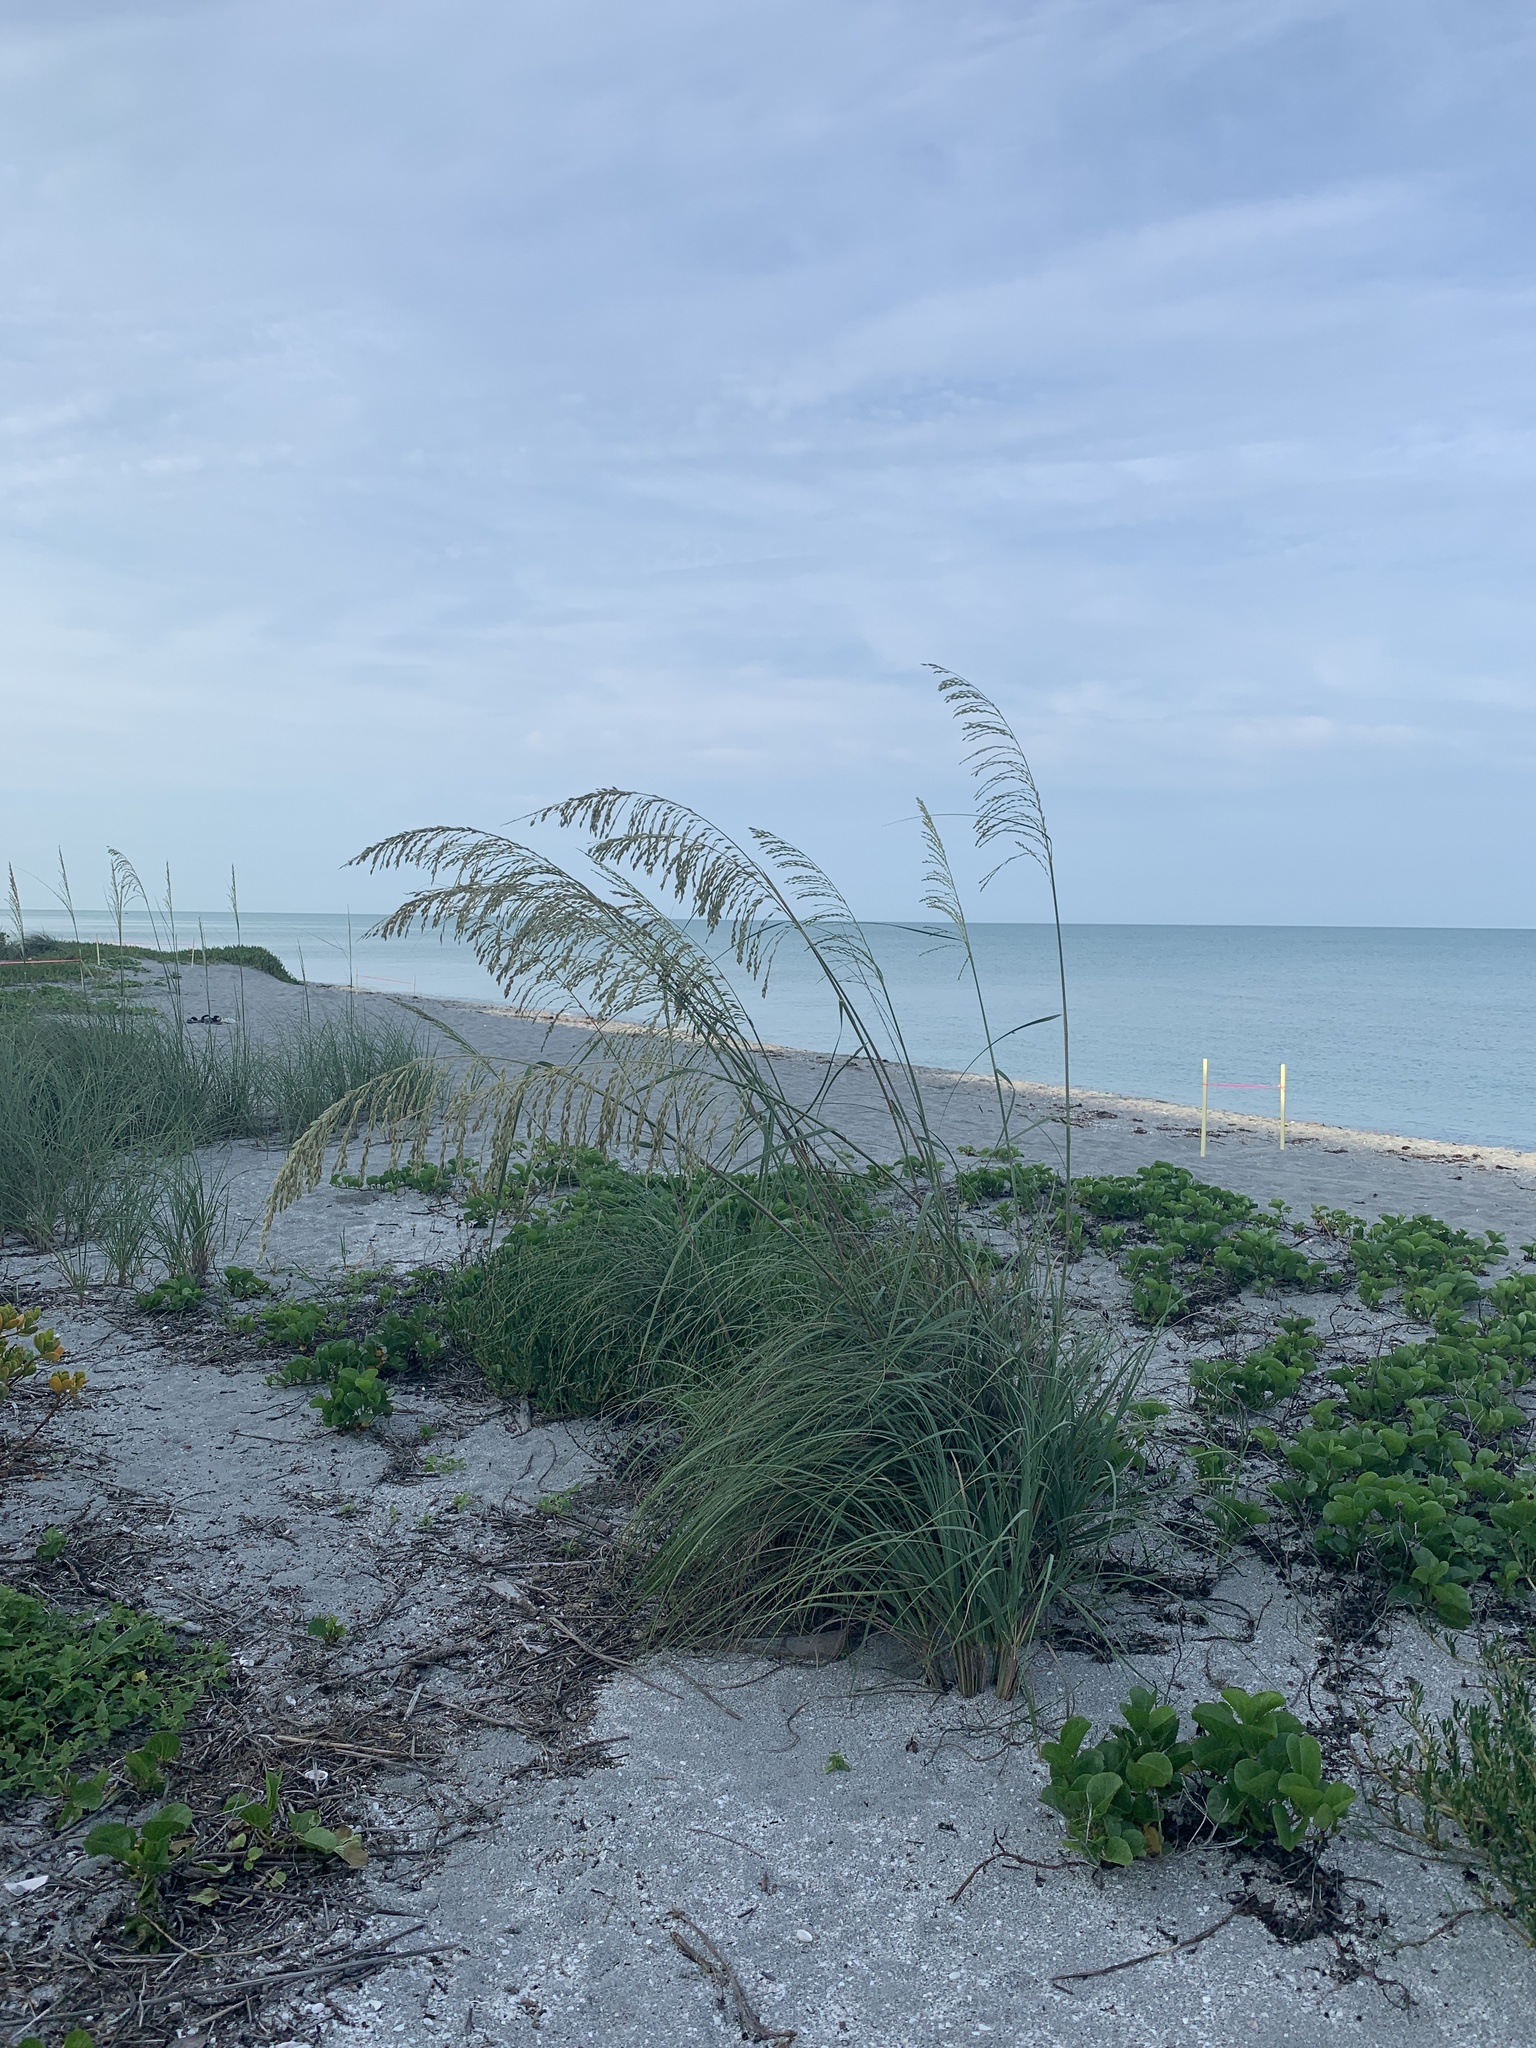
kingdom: Plantae
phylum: Tracheophyta
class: Liliopsida
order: Poales
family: Poaceae
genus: Uniola
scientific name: Uniola paniculata
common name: Seaside-oats
